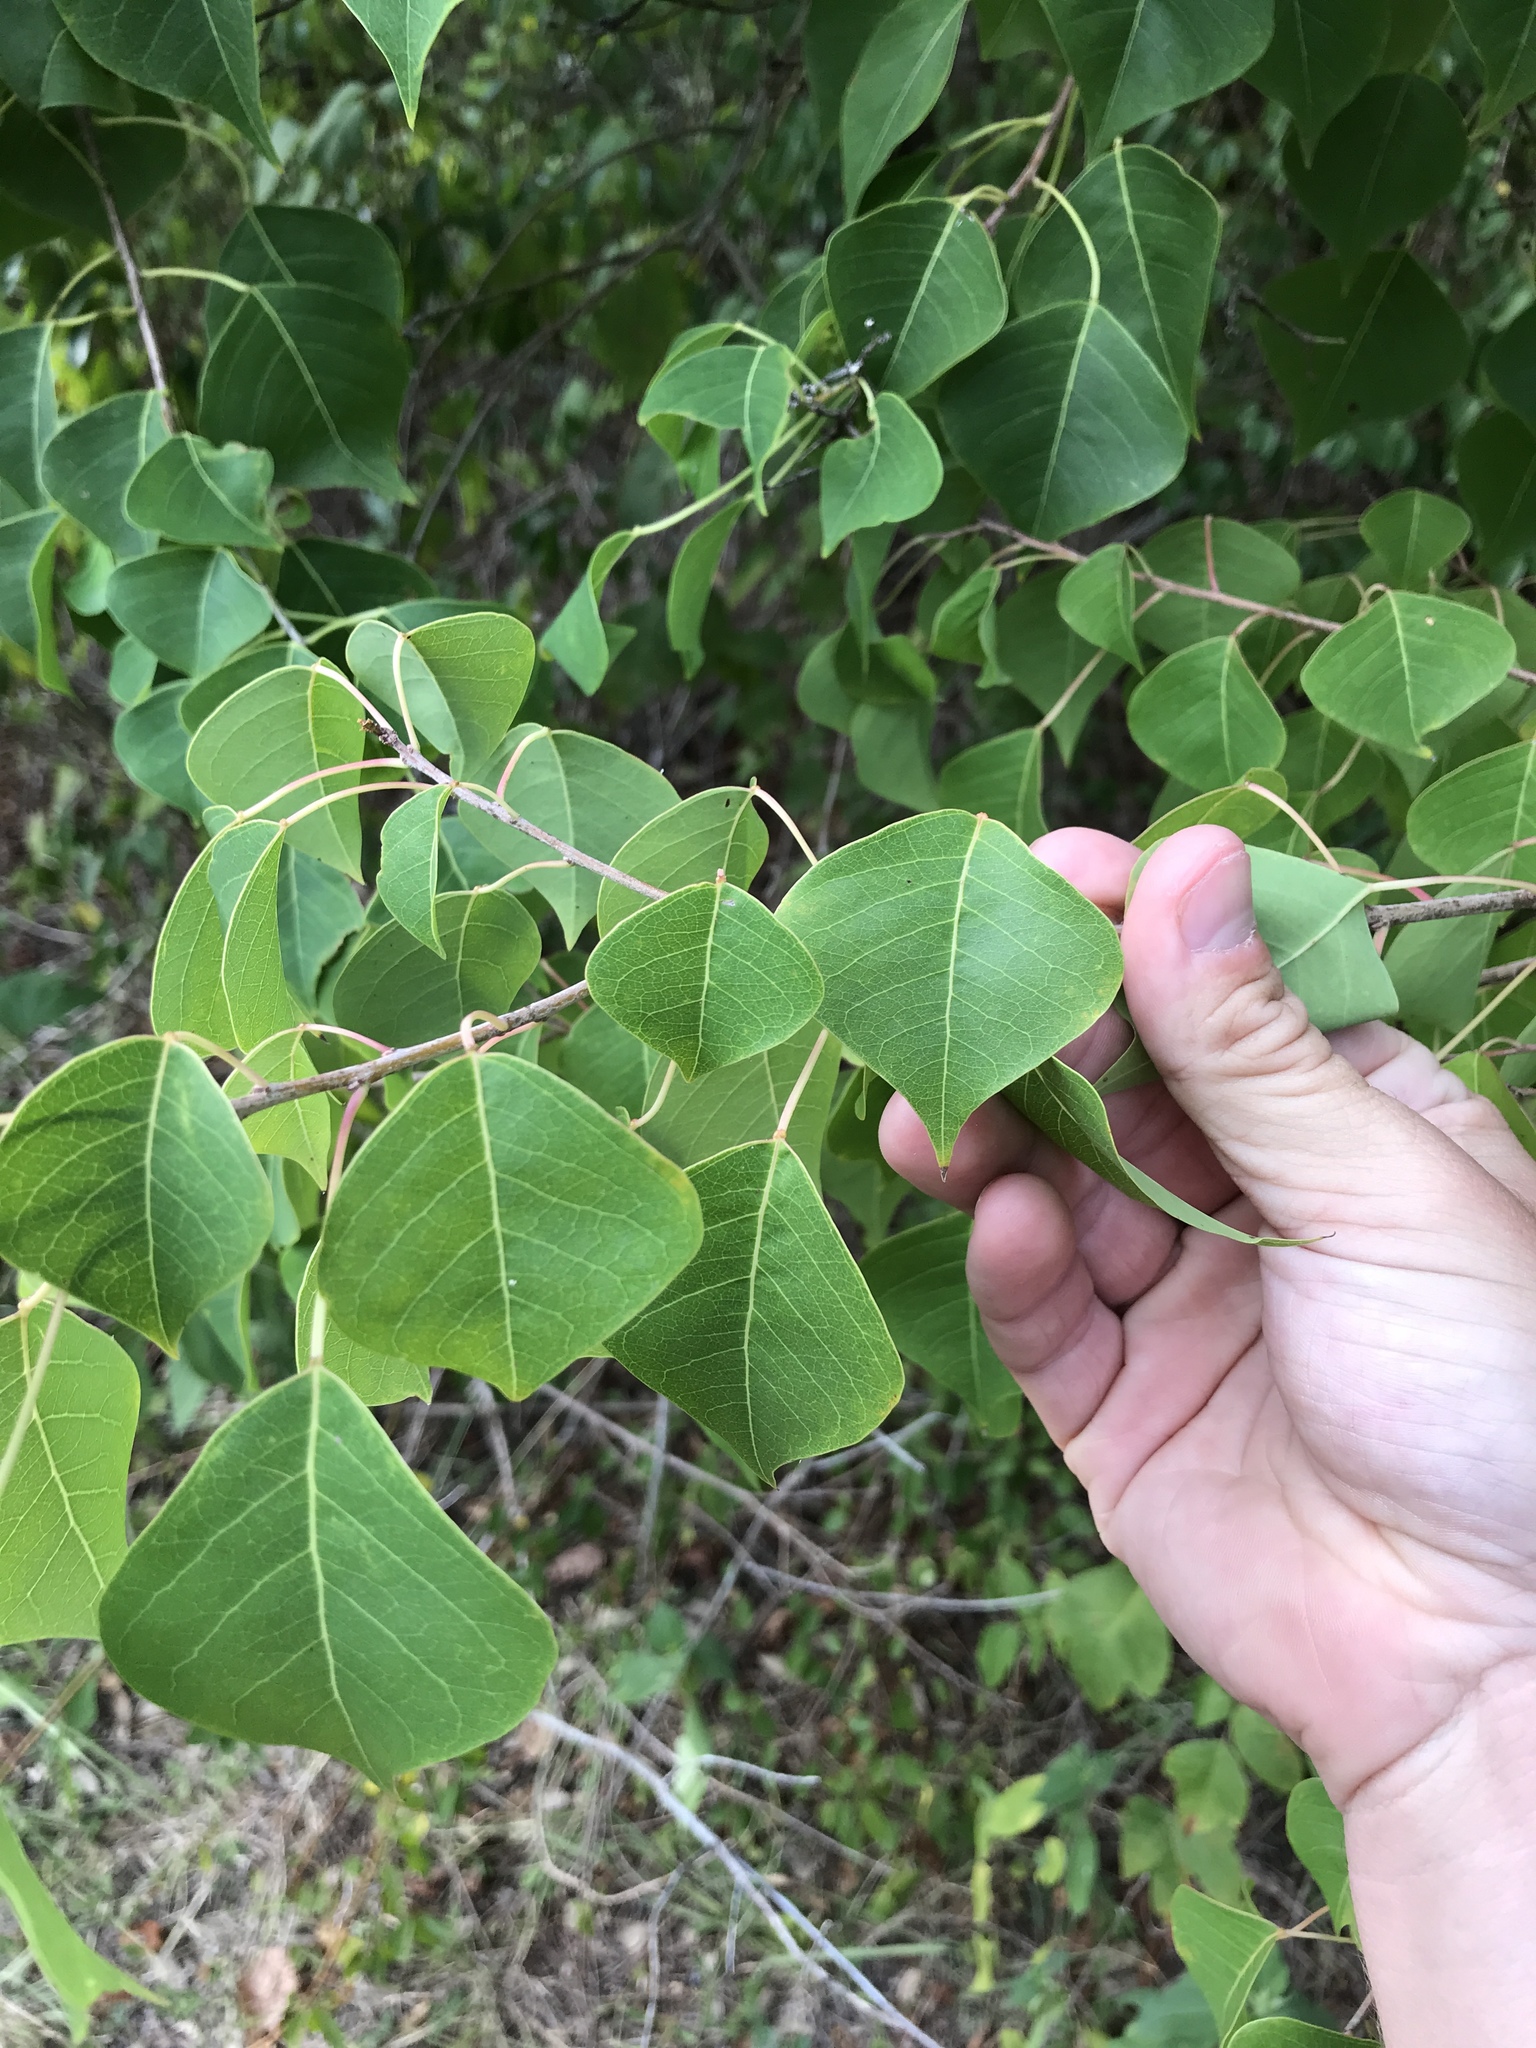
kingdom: Plantae
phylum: Tracheophyta
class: Magnoliopsida
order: Malpighiales
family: Euphorbiaceae
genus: Triadica
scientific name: Triadica sebifera
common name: Chinese tallow
